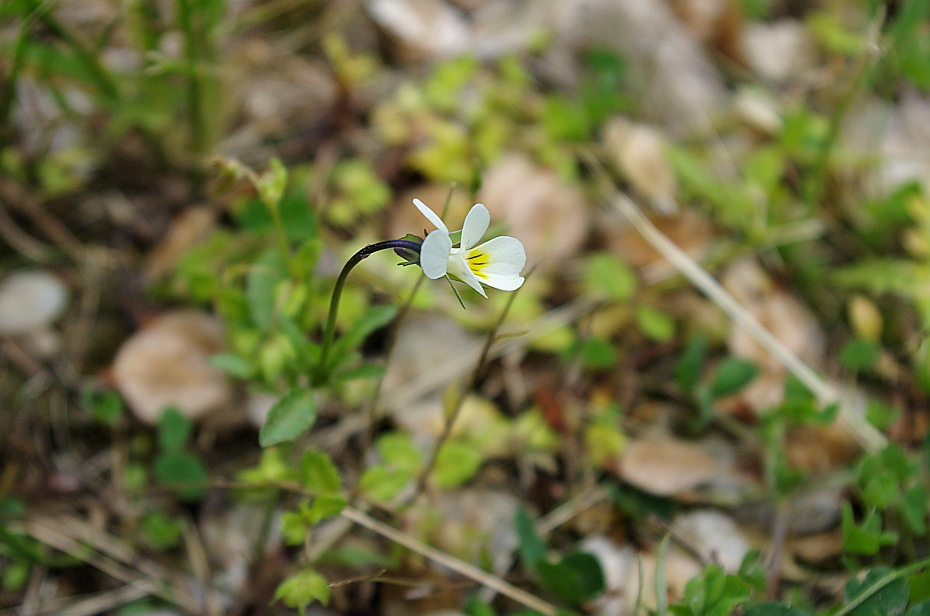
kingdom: Plantae
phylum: Tracheophyta
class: Magnoliopsida
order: Malpighiales
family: Violaceae
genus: Viola
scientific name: Viola arvensis
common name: Field pansy
